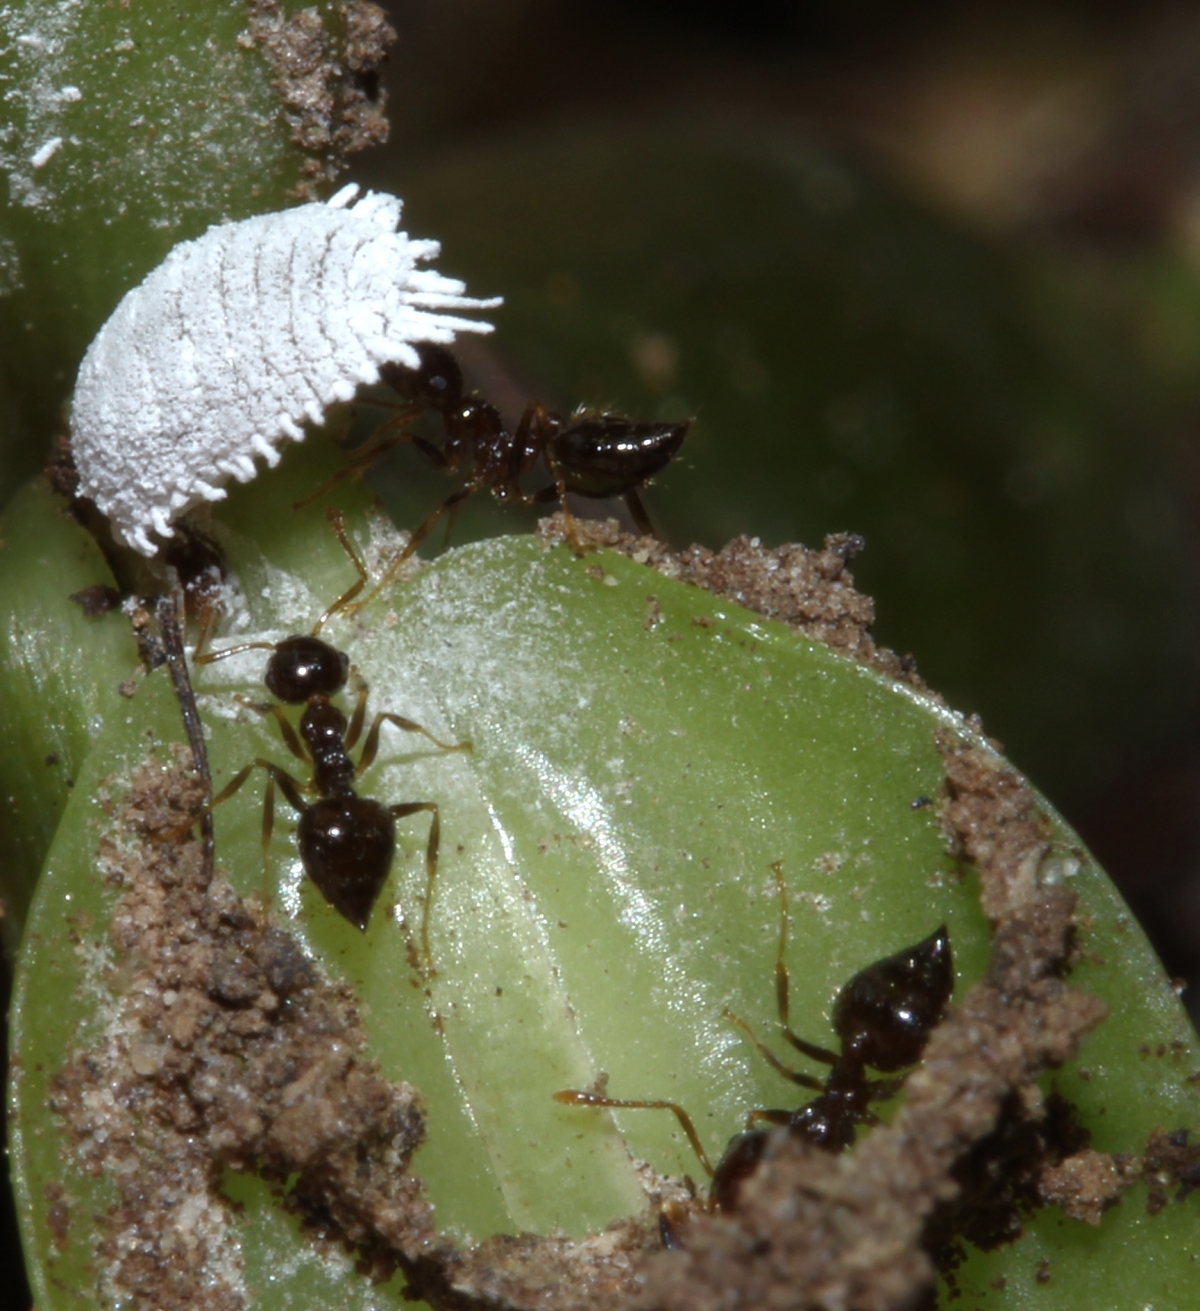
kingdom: Animalia
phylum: Arthropoda
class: Insecta
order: Hymenoptera
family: Formicidae
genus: Orthocrema
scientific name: Orthocrema
